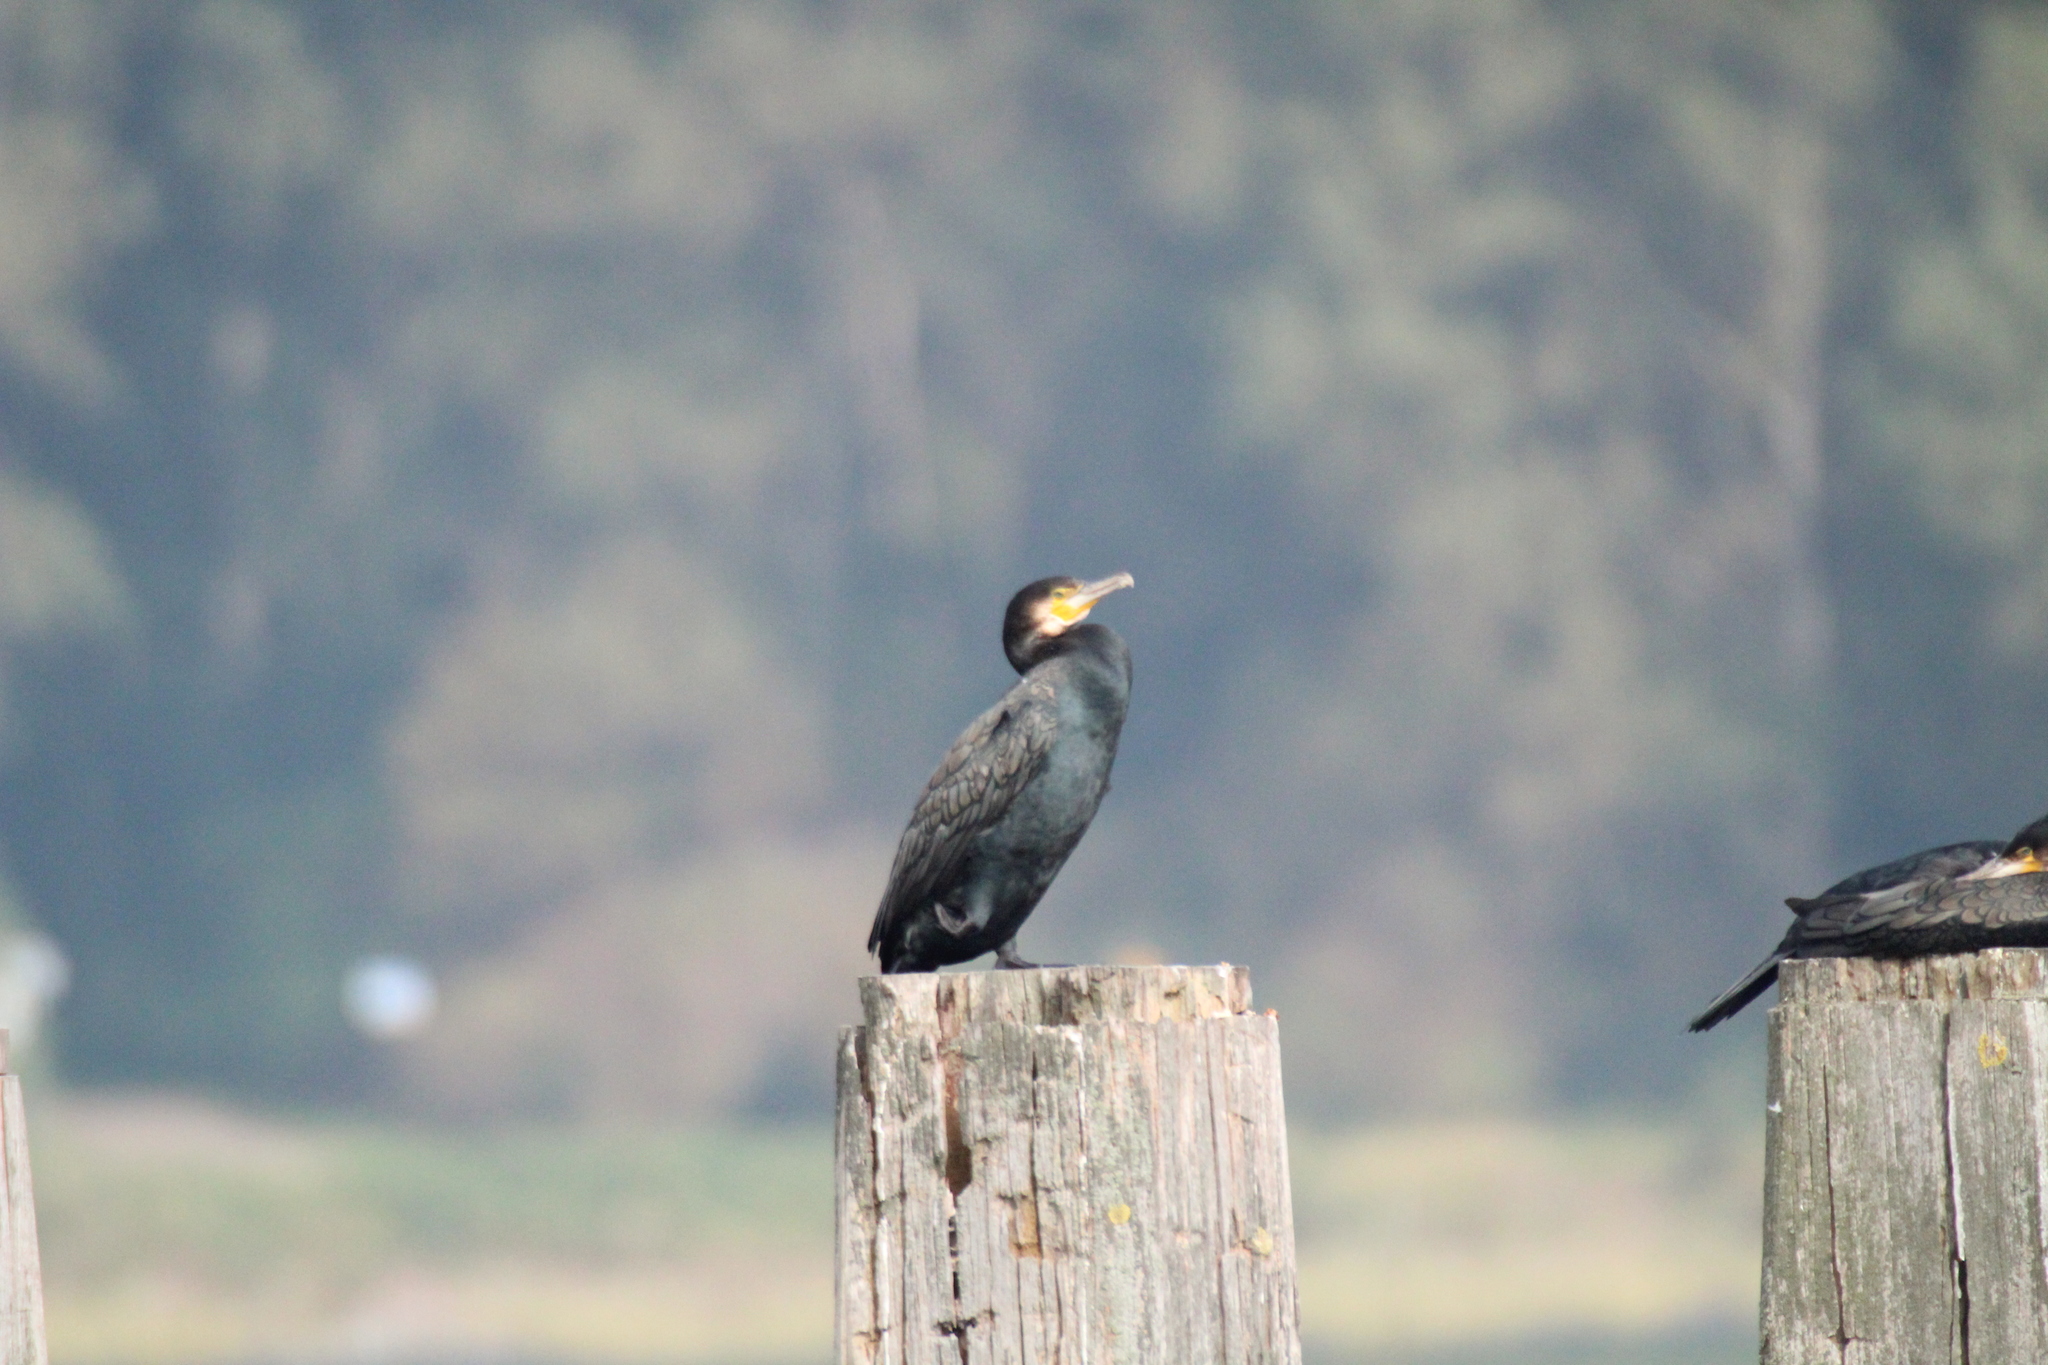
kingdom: Animalia
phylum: Chordata
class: Aves
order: Suliformes
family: Phalacrocoracidae
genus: Phalacrocorax
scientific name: Phalacrocorax carbo
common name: Great cormorant
